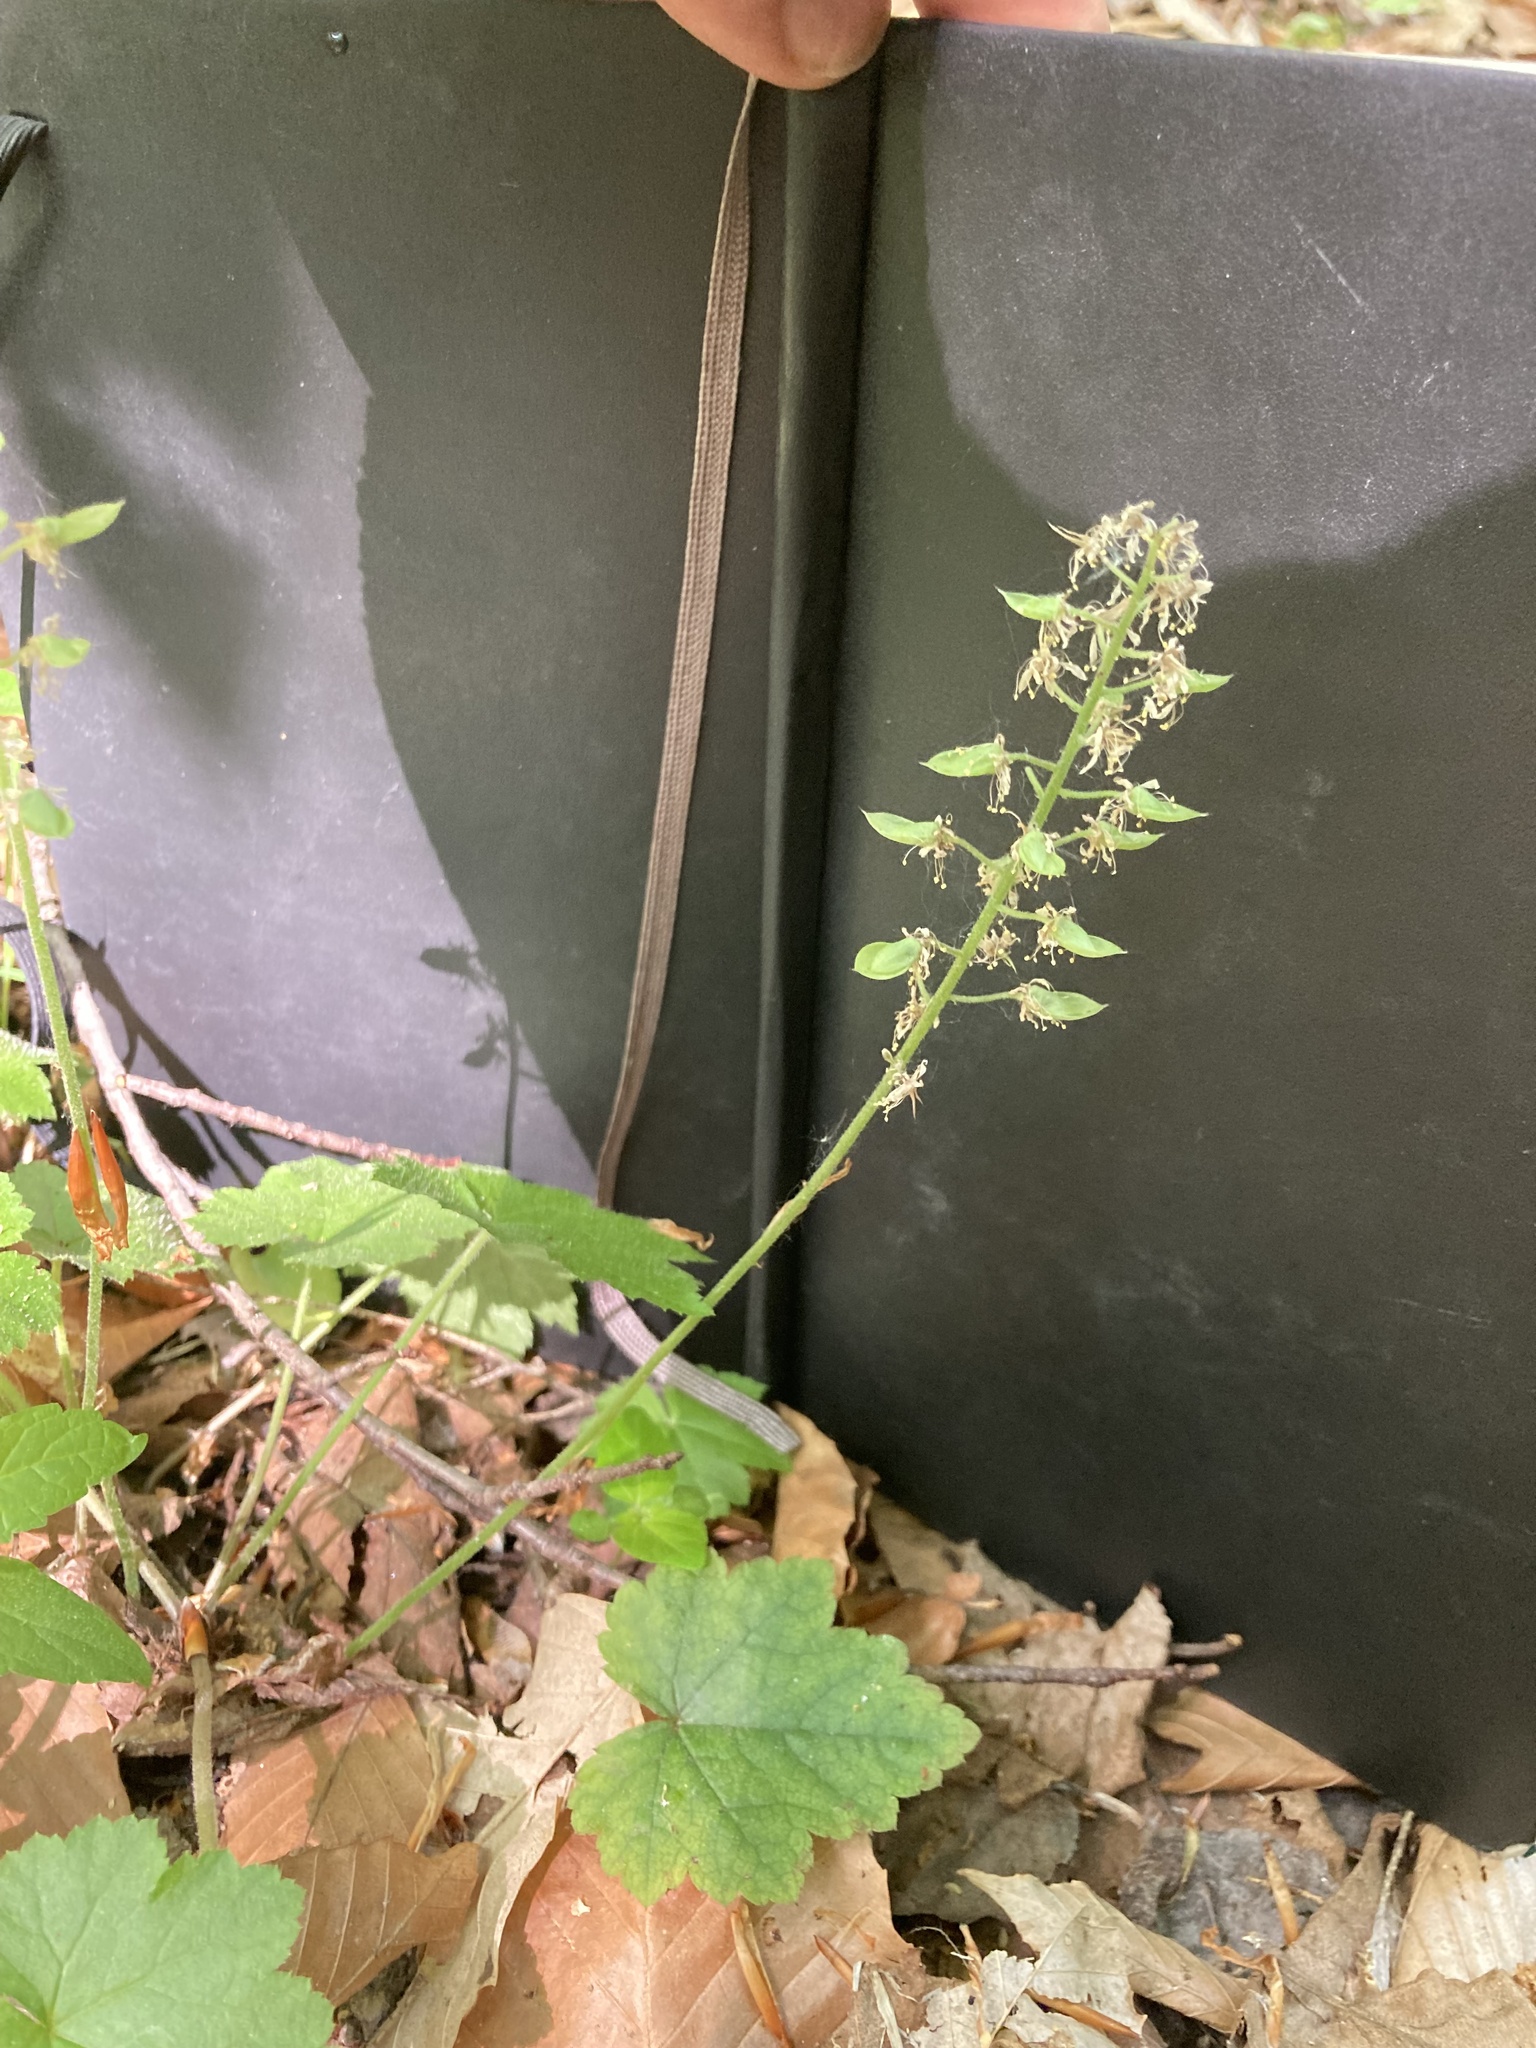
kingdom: Plantae
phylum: Tracheophyta
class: Magnoliopsida
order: Saxifragales
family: Saxifragaceae
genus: Tiarella
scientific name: Tiarella stolonifera
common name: Stoloniferous foamflower
